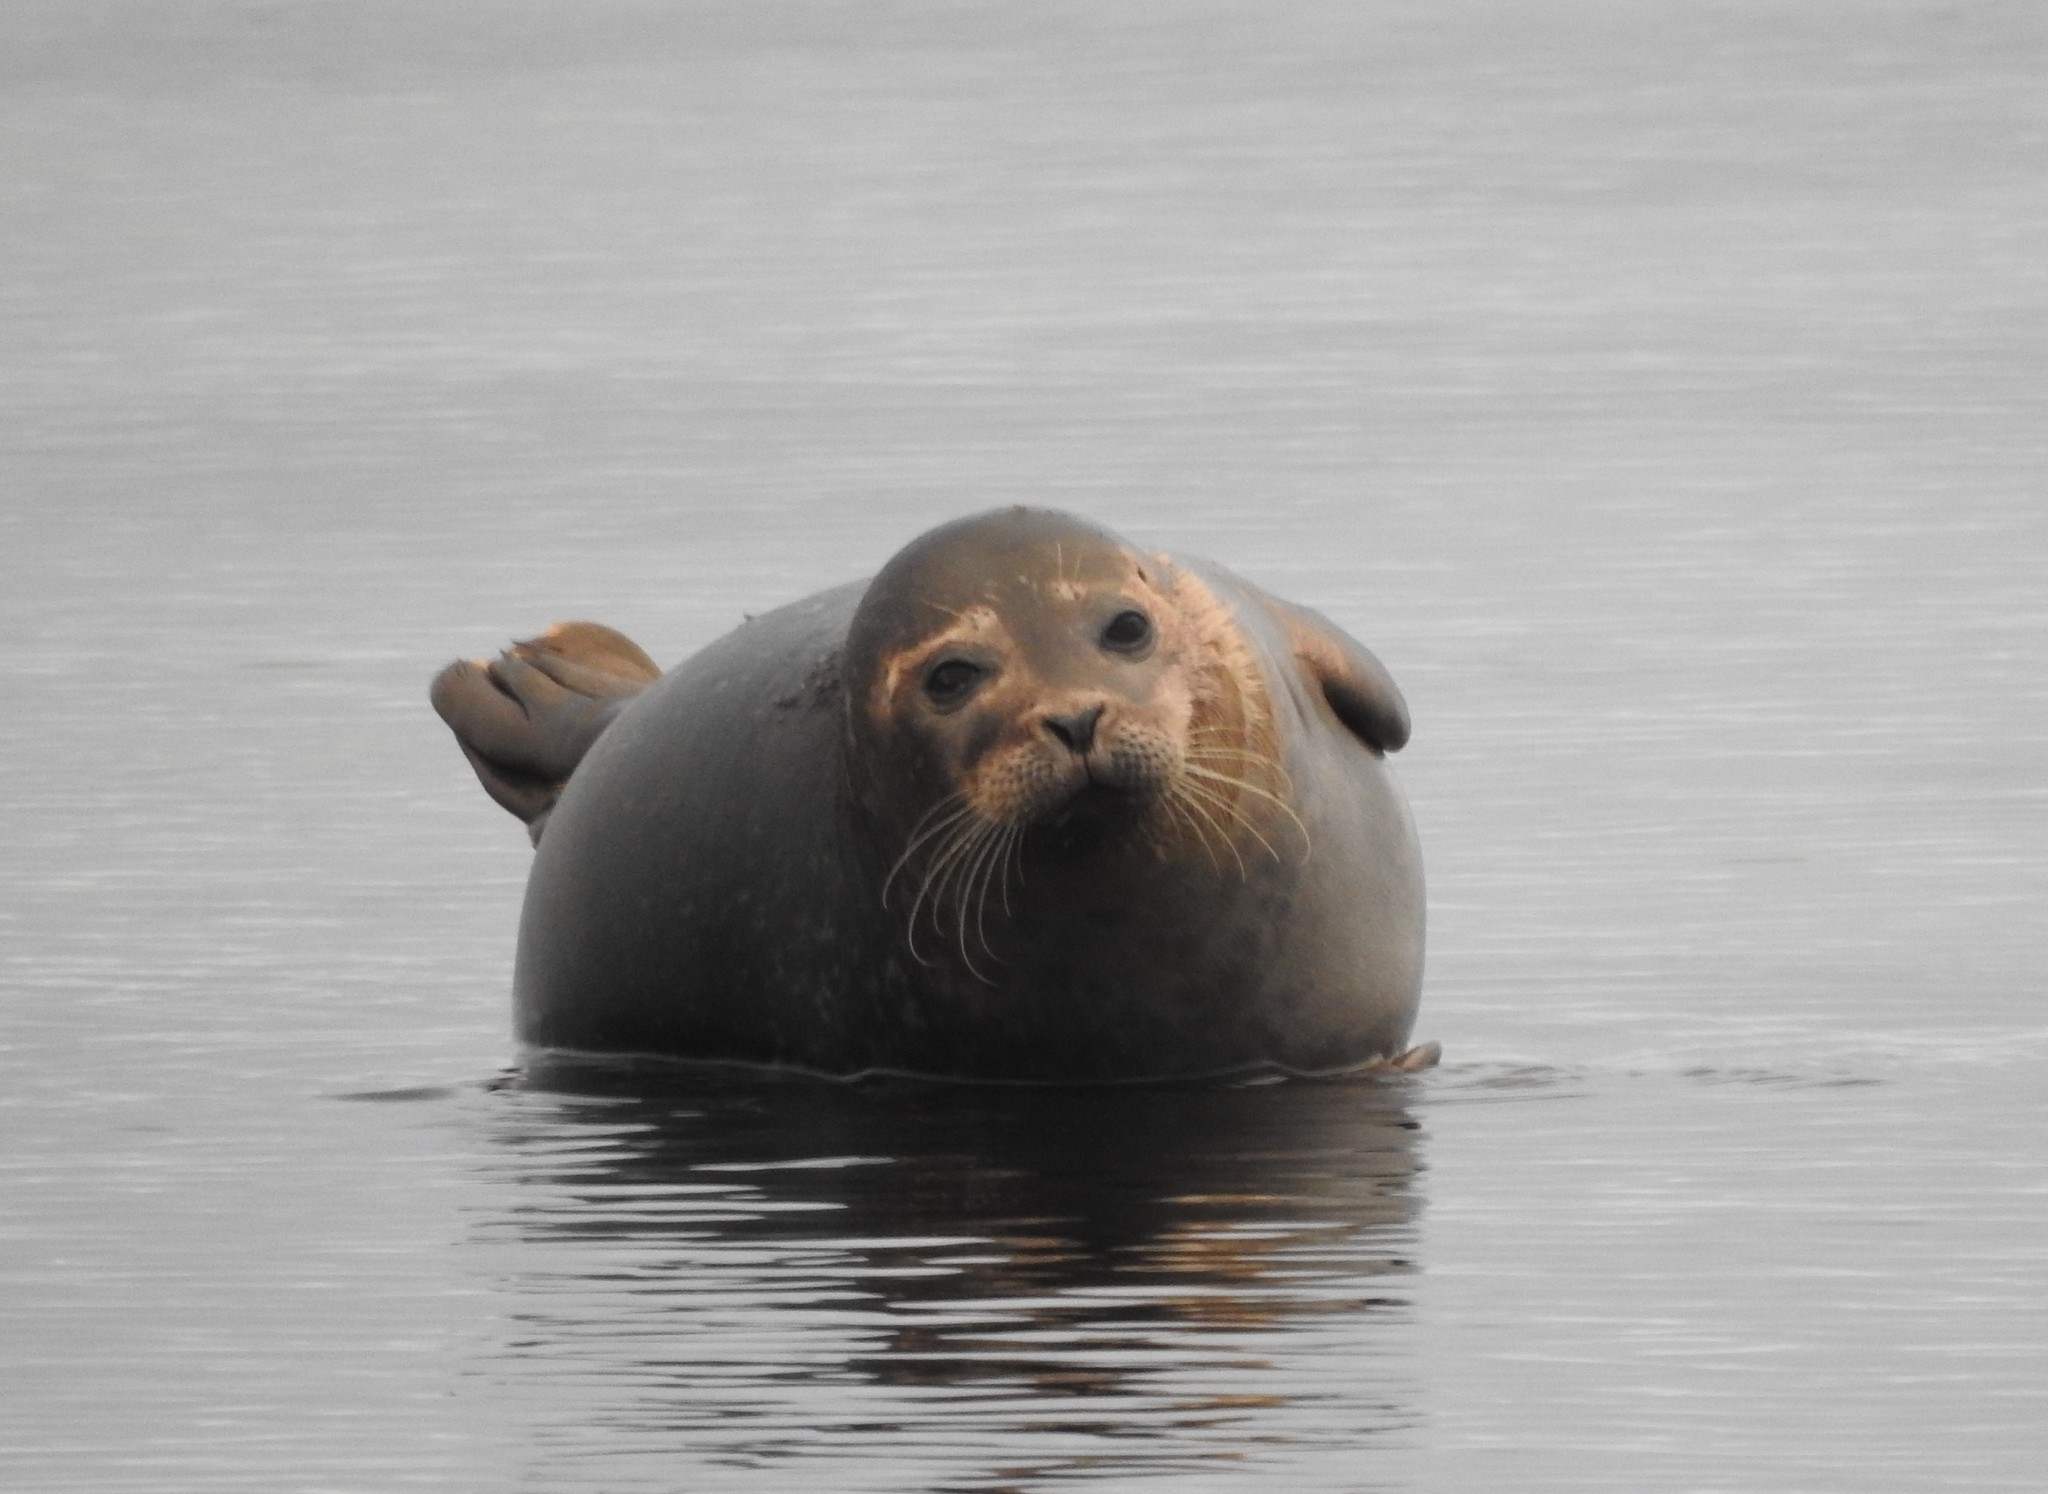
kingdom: Animalia
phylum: Chordata
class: Mammalia
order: Carnivora
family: Phocidae
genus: Phoca
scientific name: Phoca vitulina
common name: Harbor seal
